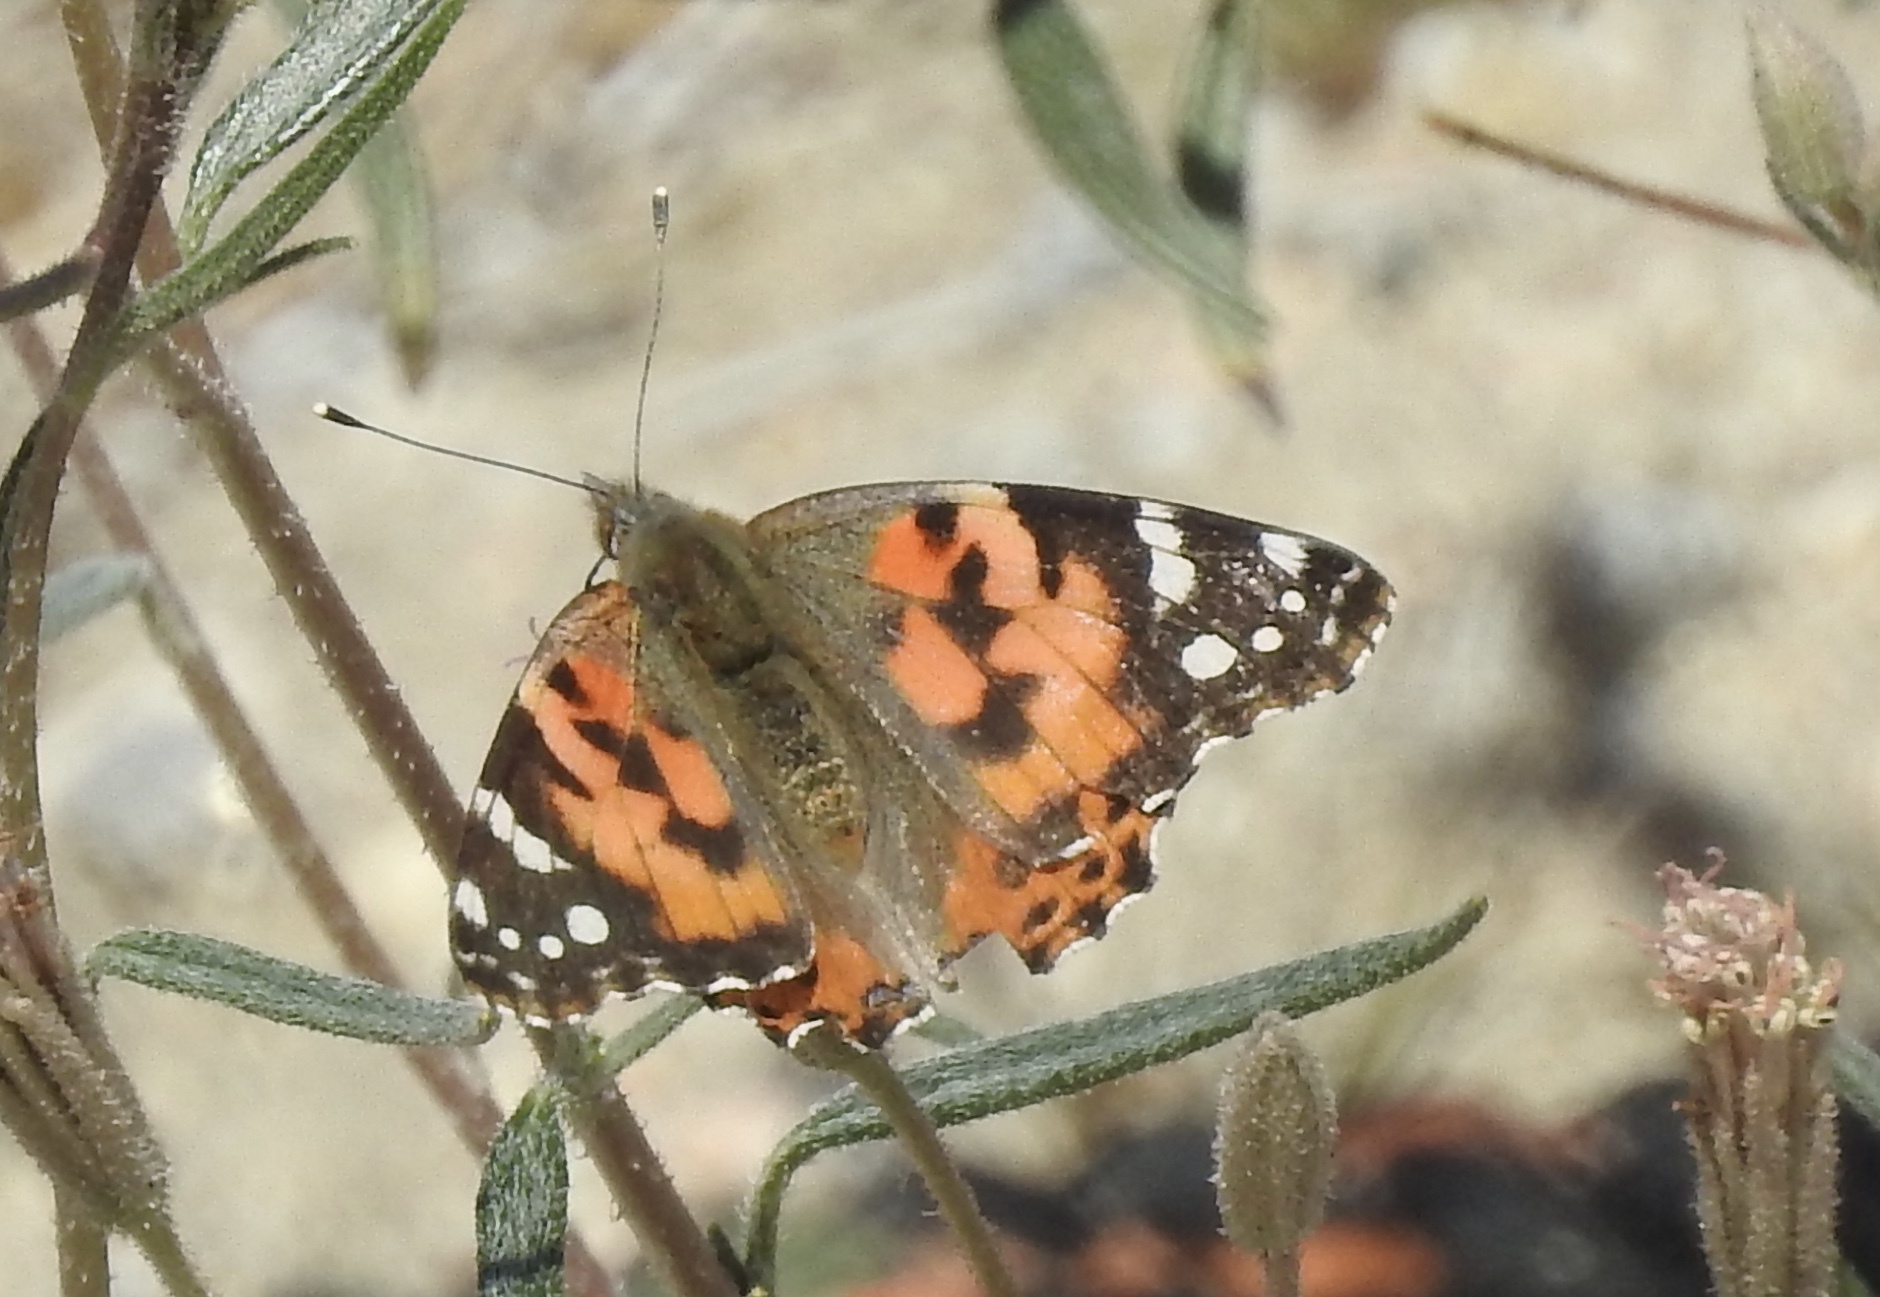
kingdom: Animalia
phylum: Arthropoda
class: Insecta
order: Lepidoptera
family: Nymphalidae
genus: Vanessa
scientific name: Vanessa cardui
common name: Painted lady
